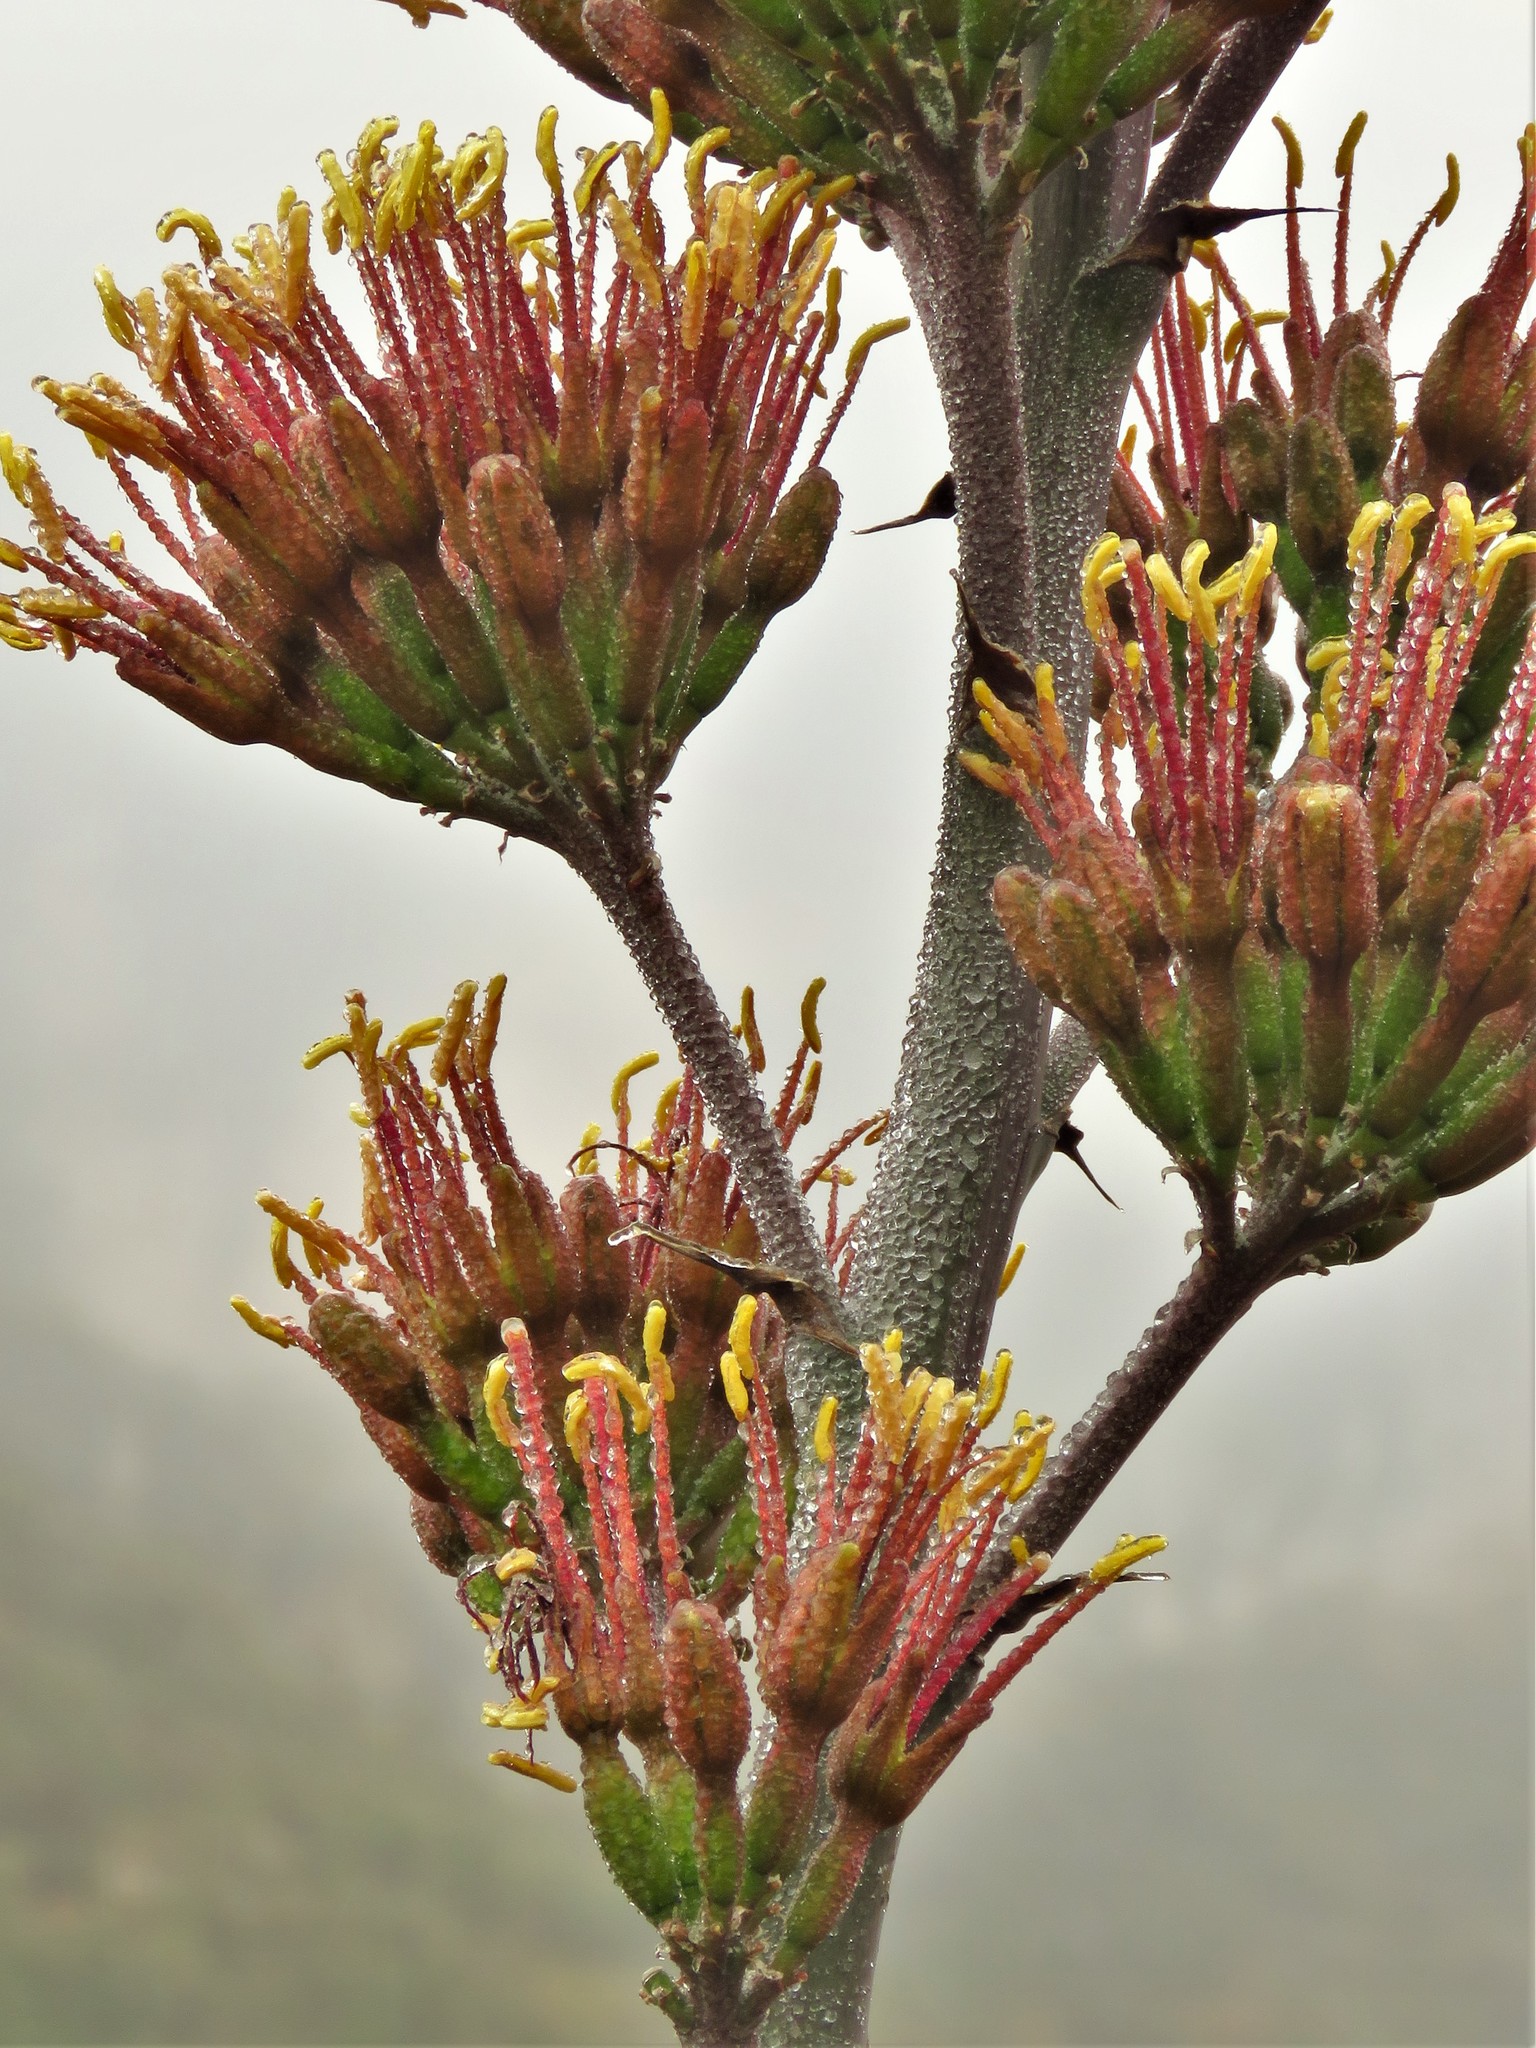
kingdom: Plantae
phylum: Tracheophyta
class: Liliopsida
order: Asparagales
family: Asparagaceae
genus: Agave
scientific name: Agave parryi
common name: Parry's agave
